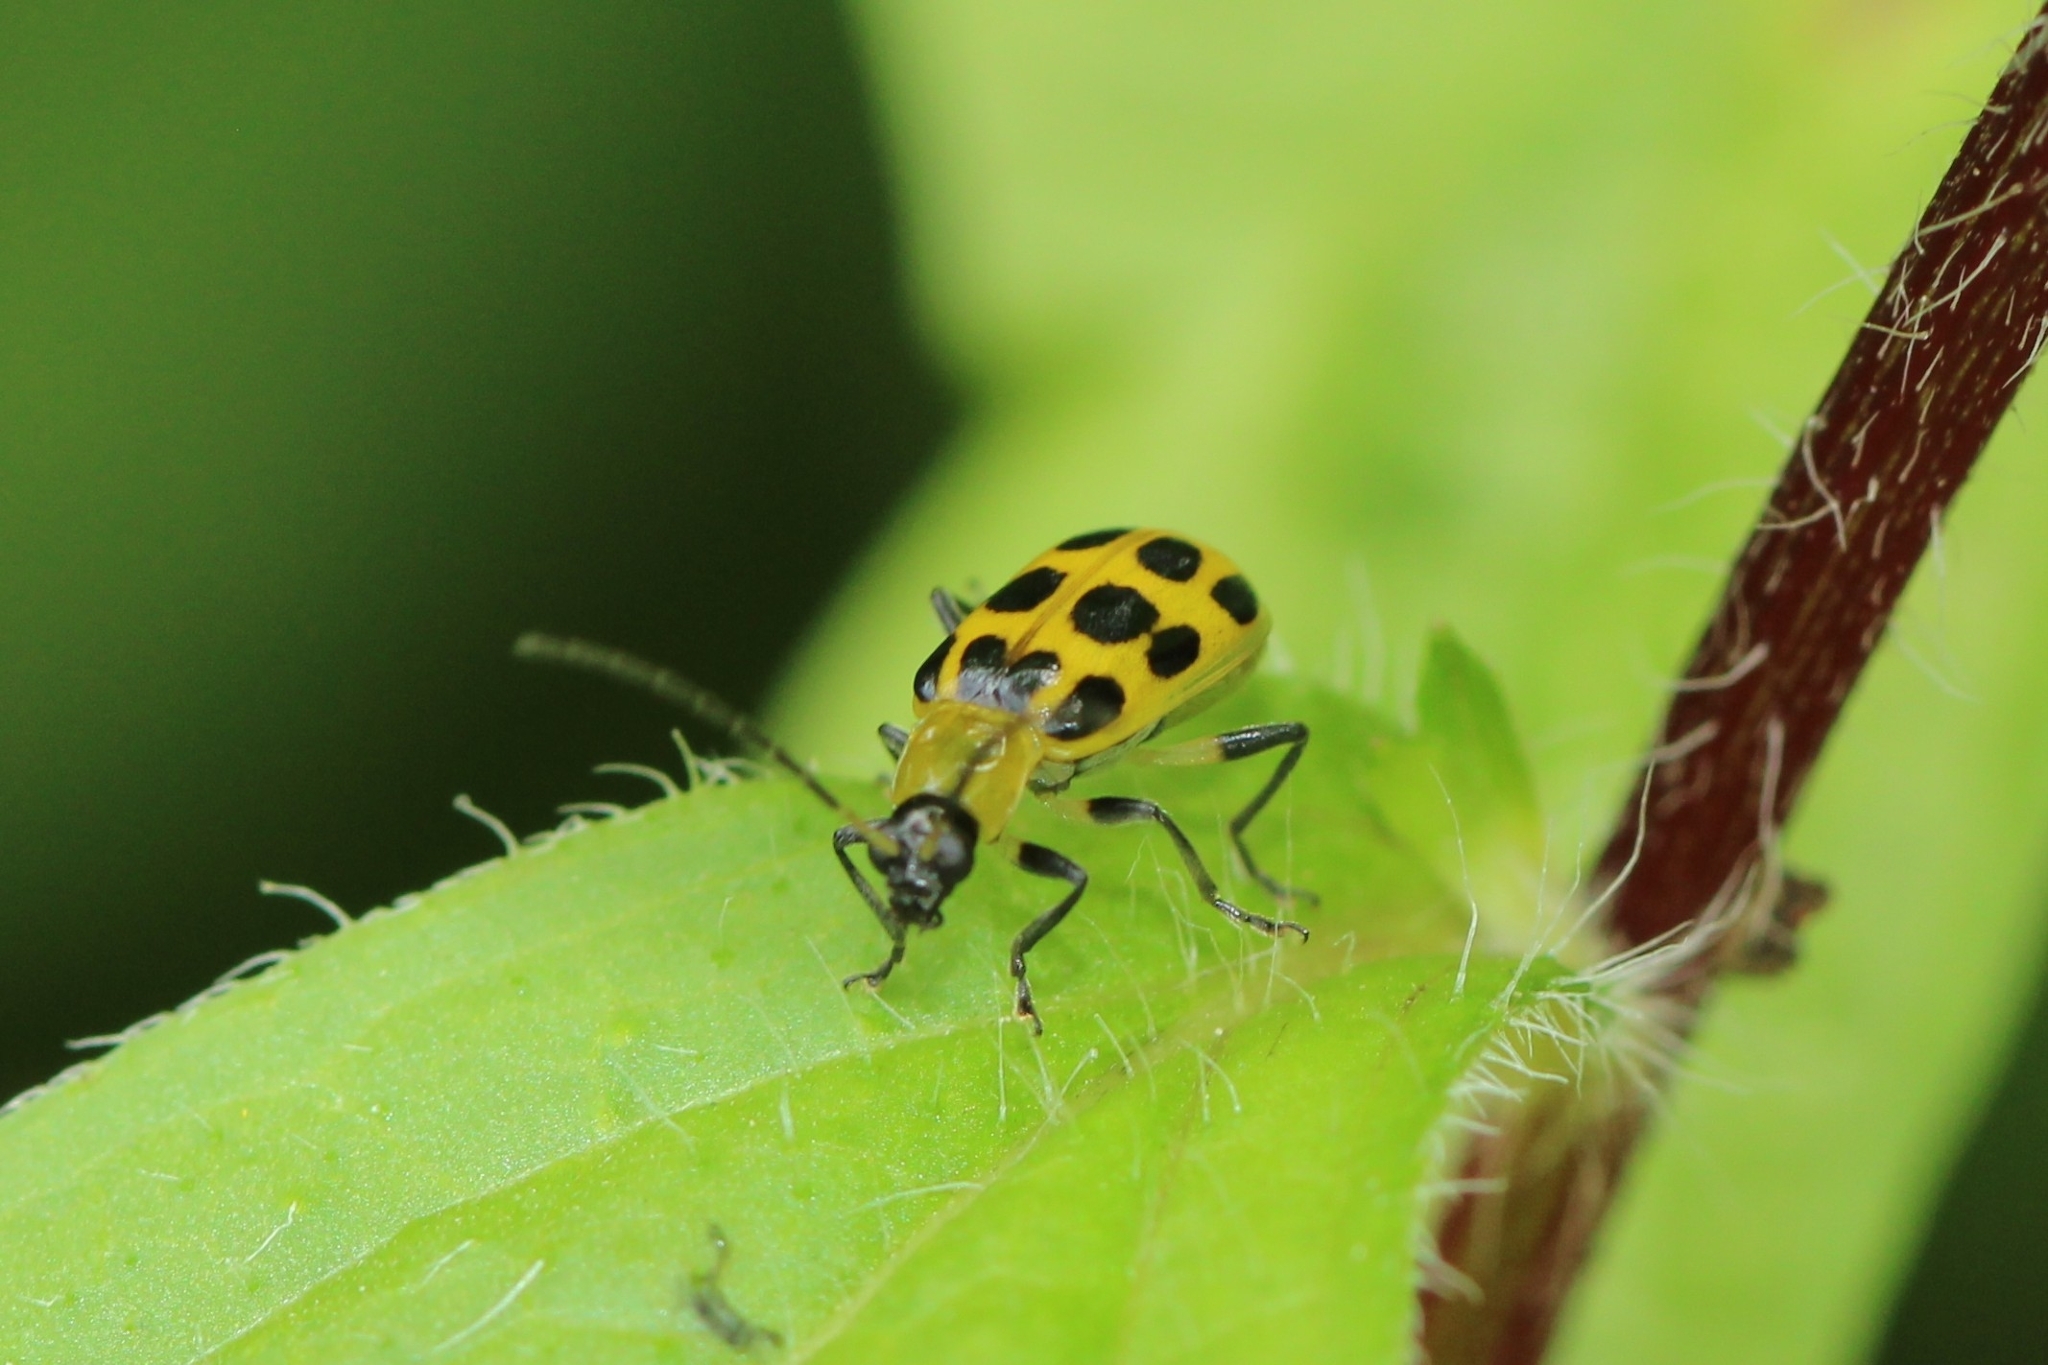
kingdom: Animalia
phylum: Arthropoda
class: Insecta
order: Coleoptera
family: Chrysomelidae
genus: Diabrotica
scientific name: Diabrotica undecimpunctata
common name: Spotted cucumber beetle
